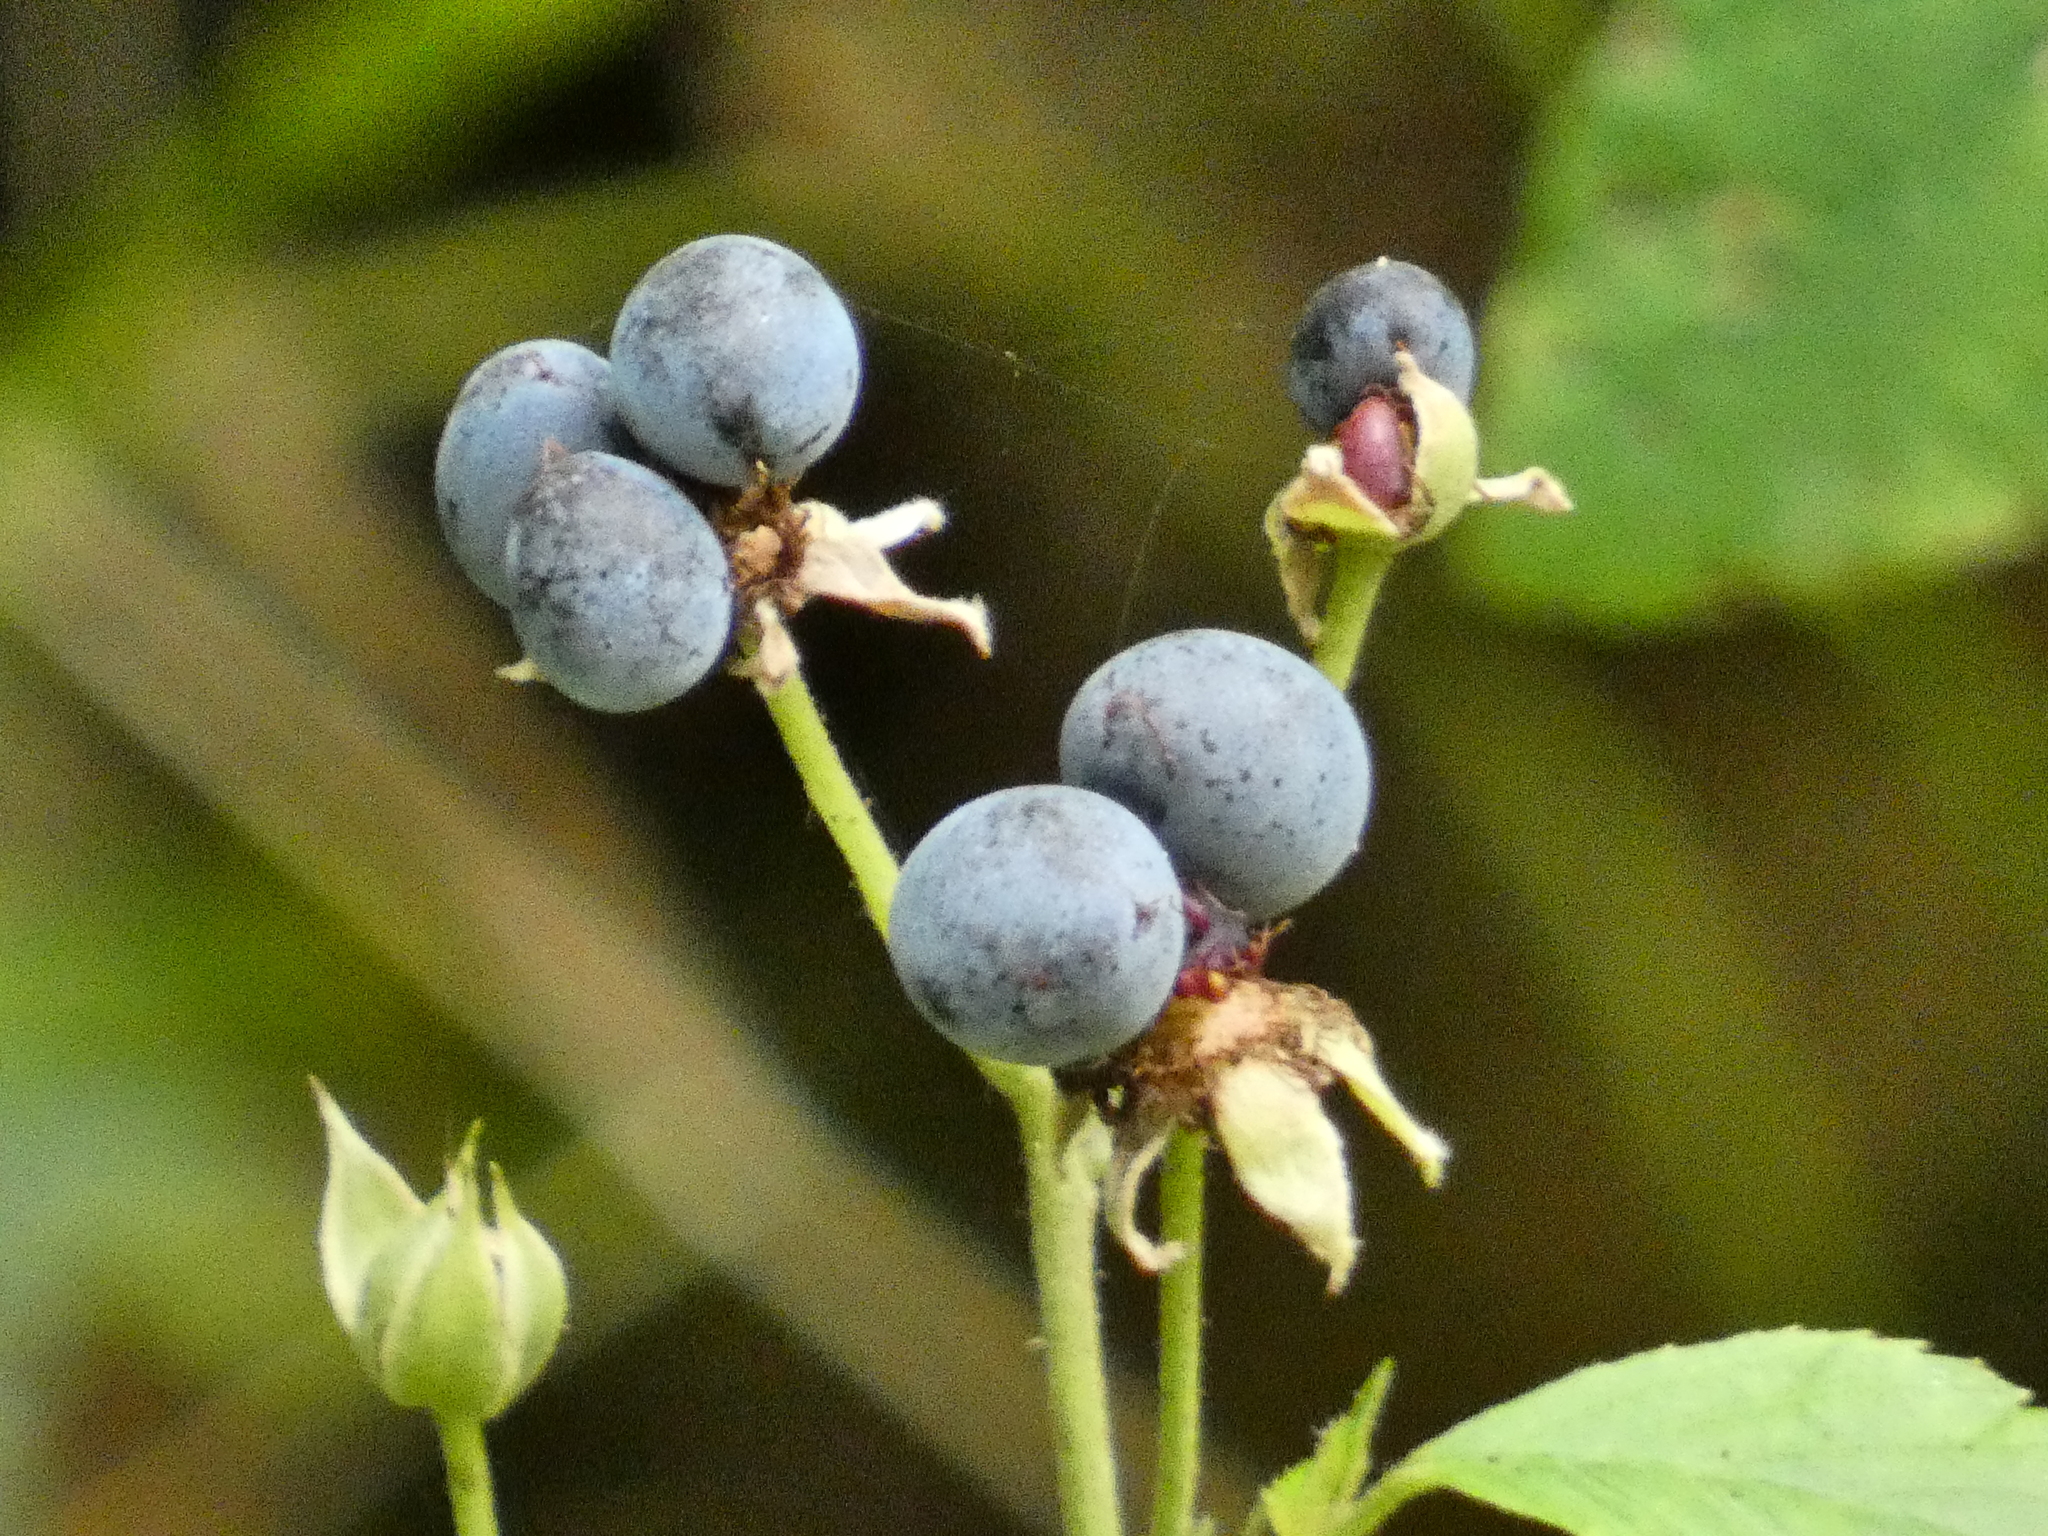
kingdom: Plantae
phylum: Tracheophyta
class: Magnoliopsida
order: Rosales
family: Rosaceae
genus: Rubus
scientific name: Rubus caesius
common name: Dewberry
